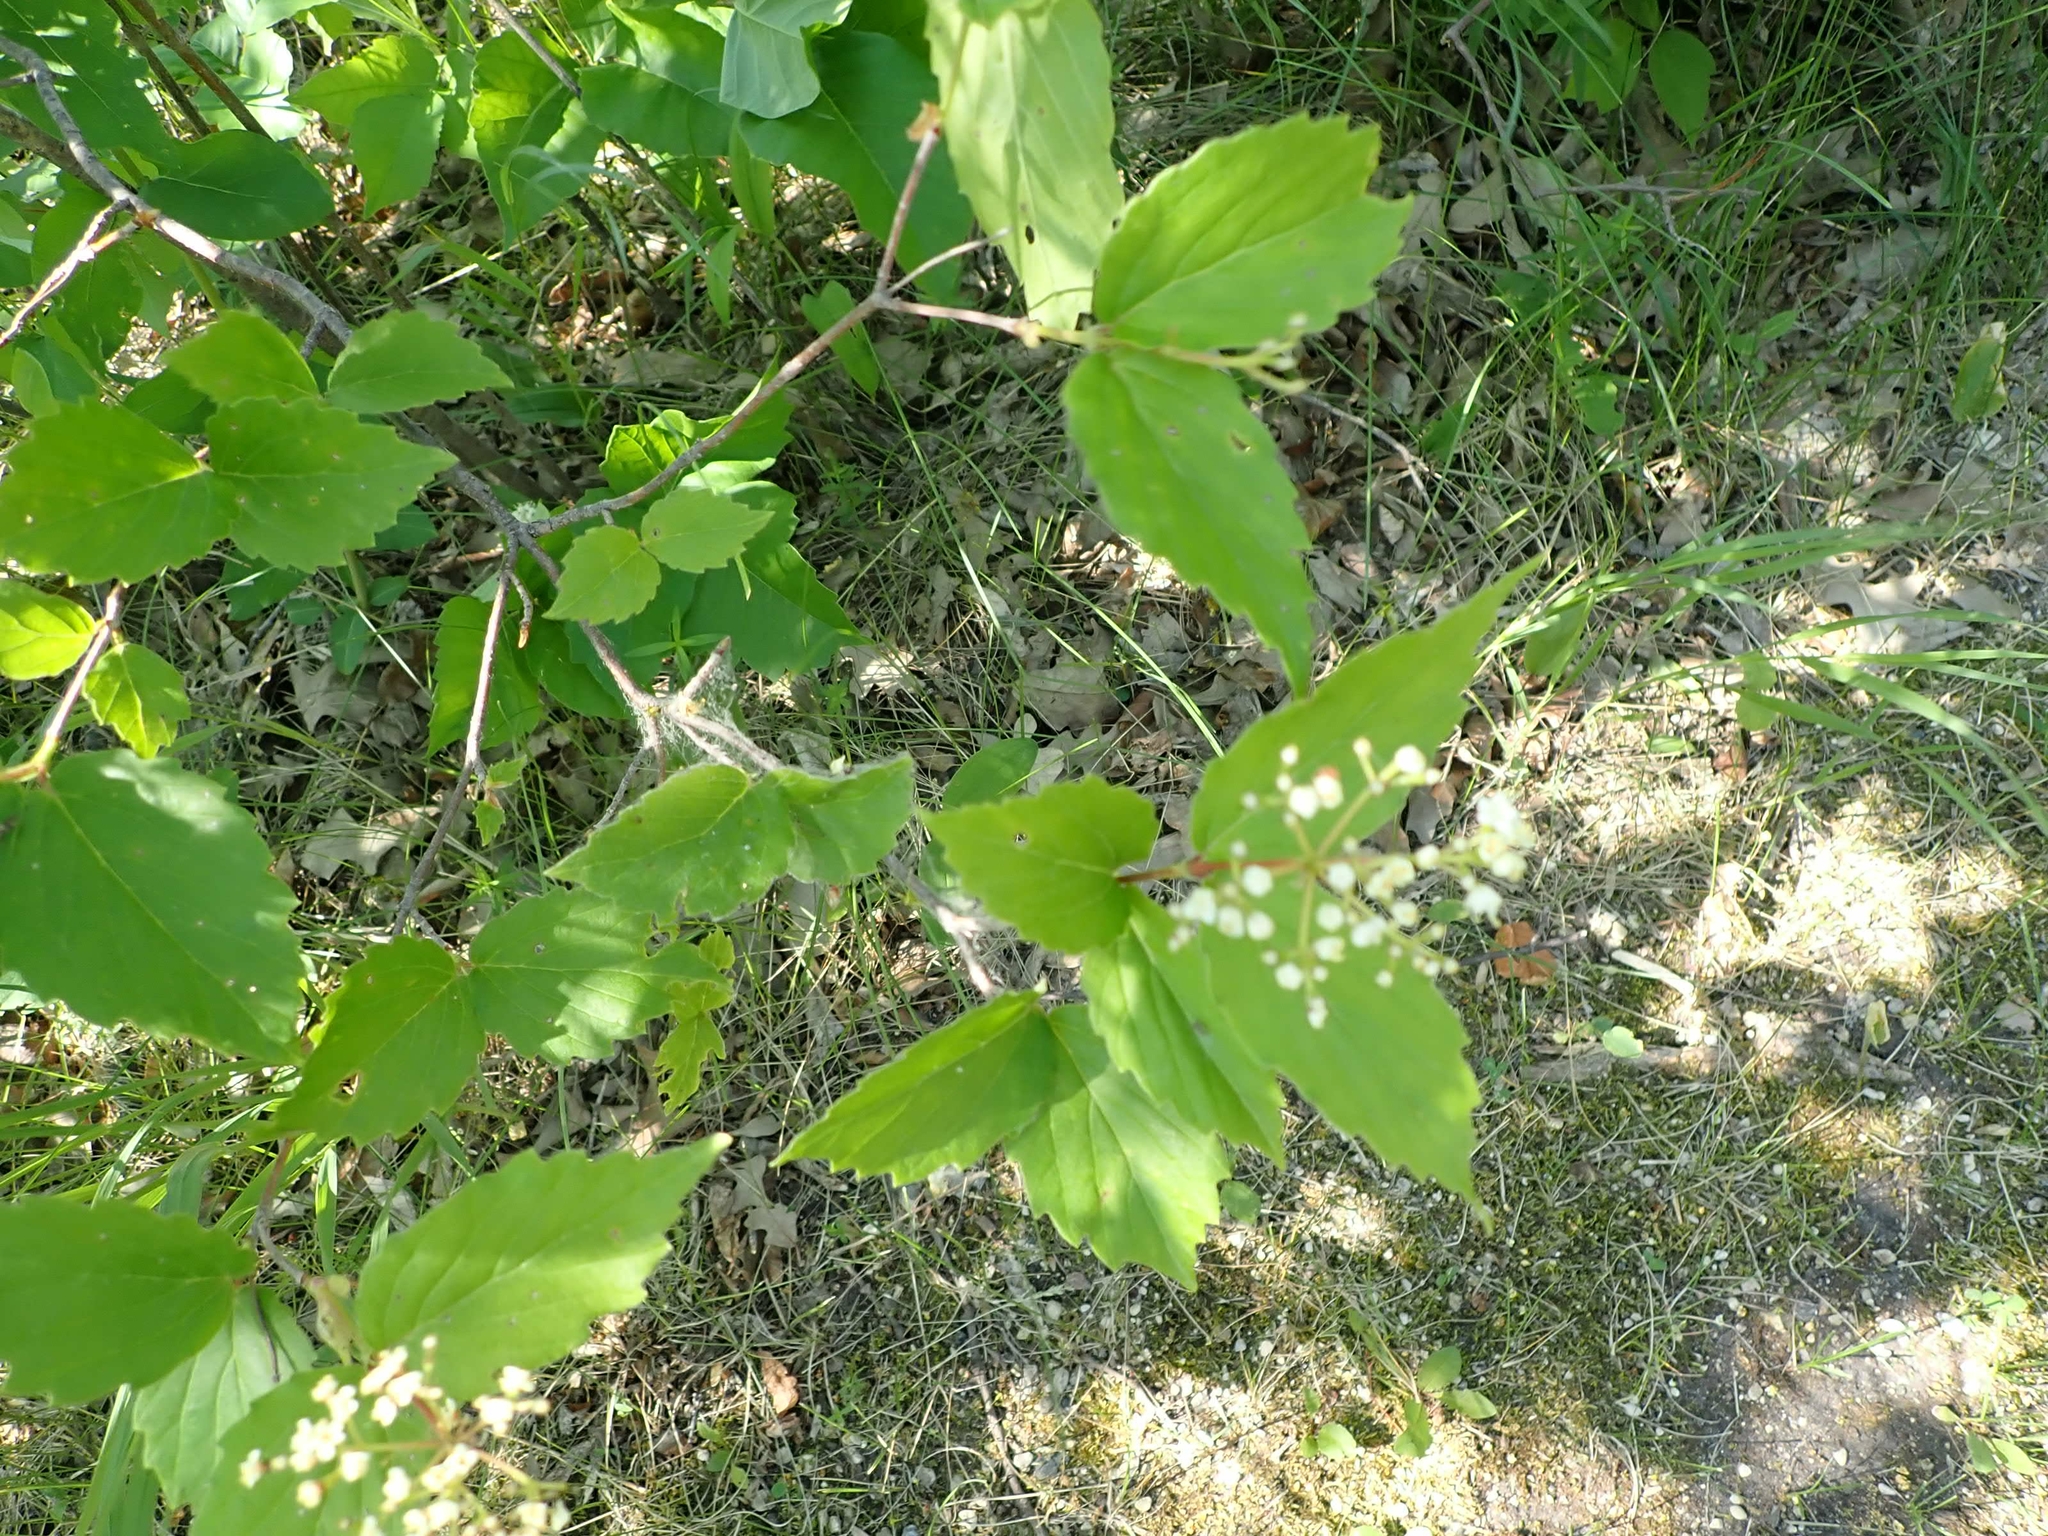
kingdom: Plantae
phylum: Tracheophyta
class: Magnoliopsida
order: Dipsacales
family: Viburnaceae
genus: Viburnum
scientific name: Viburnum rafinesqueanum
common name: Downy arrow-wood
